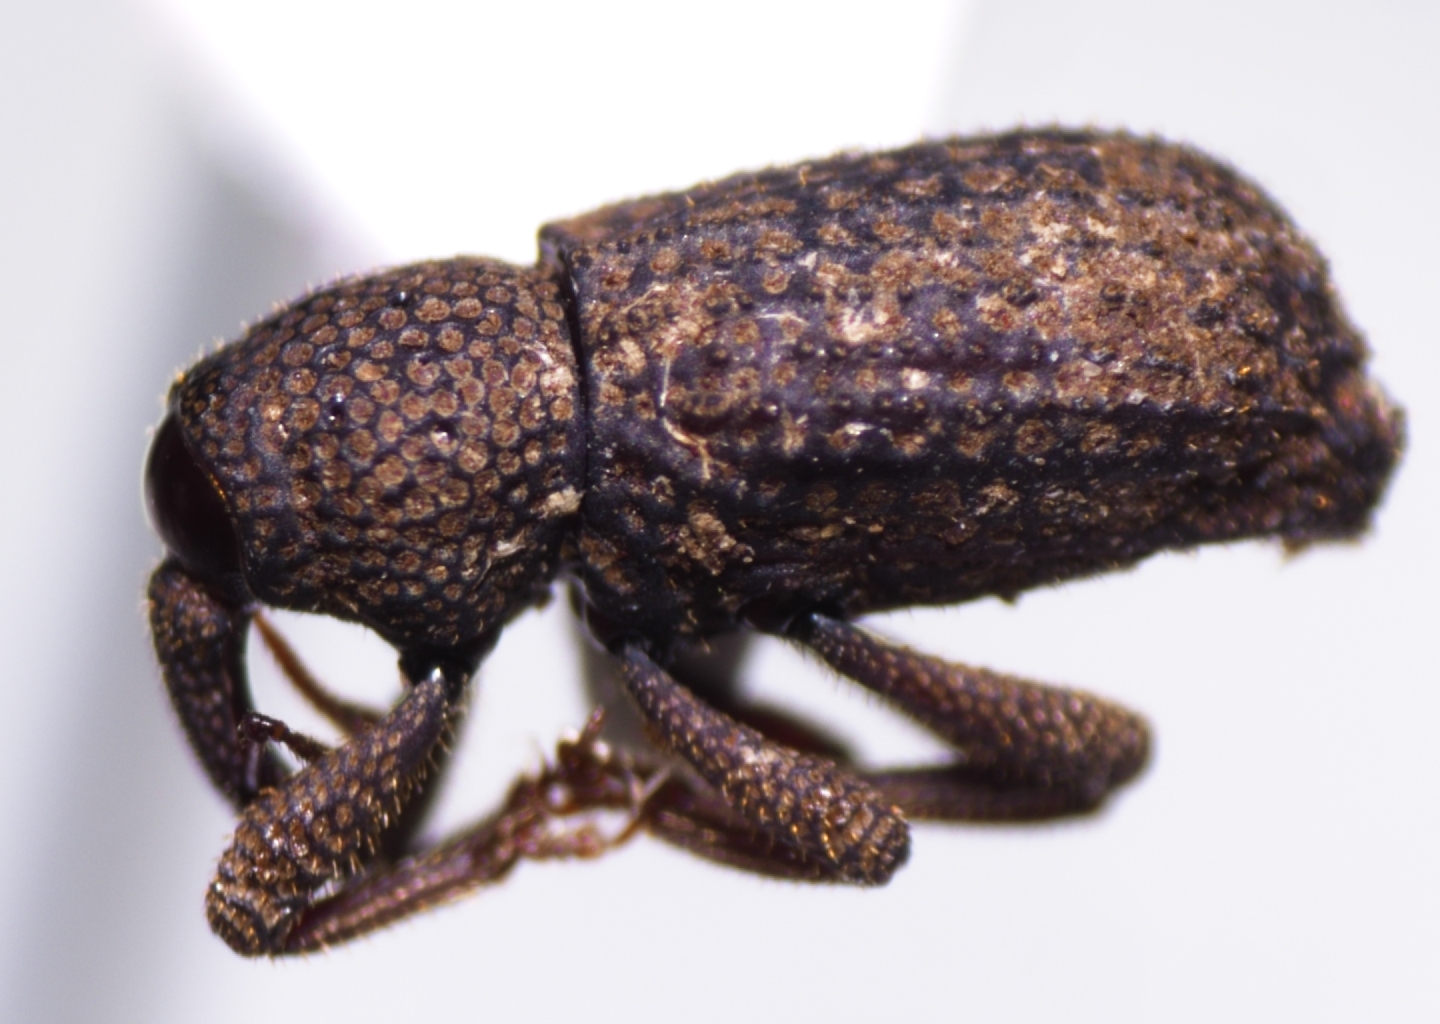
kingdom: Animalia
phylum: Arthropoda
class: Insecta
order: Coleoptera
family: Curculionidae
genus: Anchonus
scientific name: Anchonus duryi
